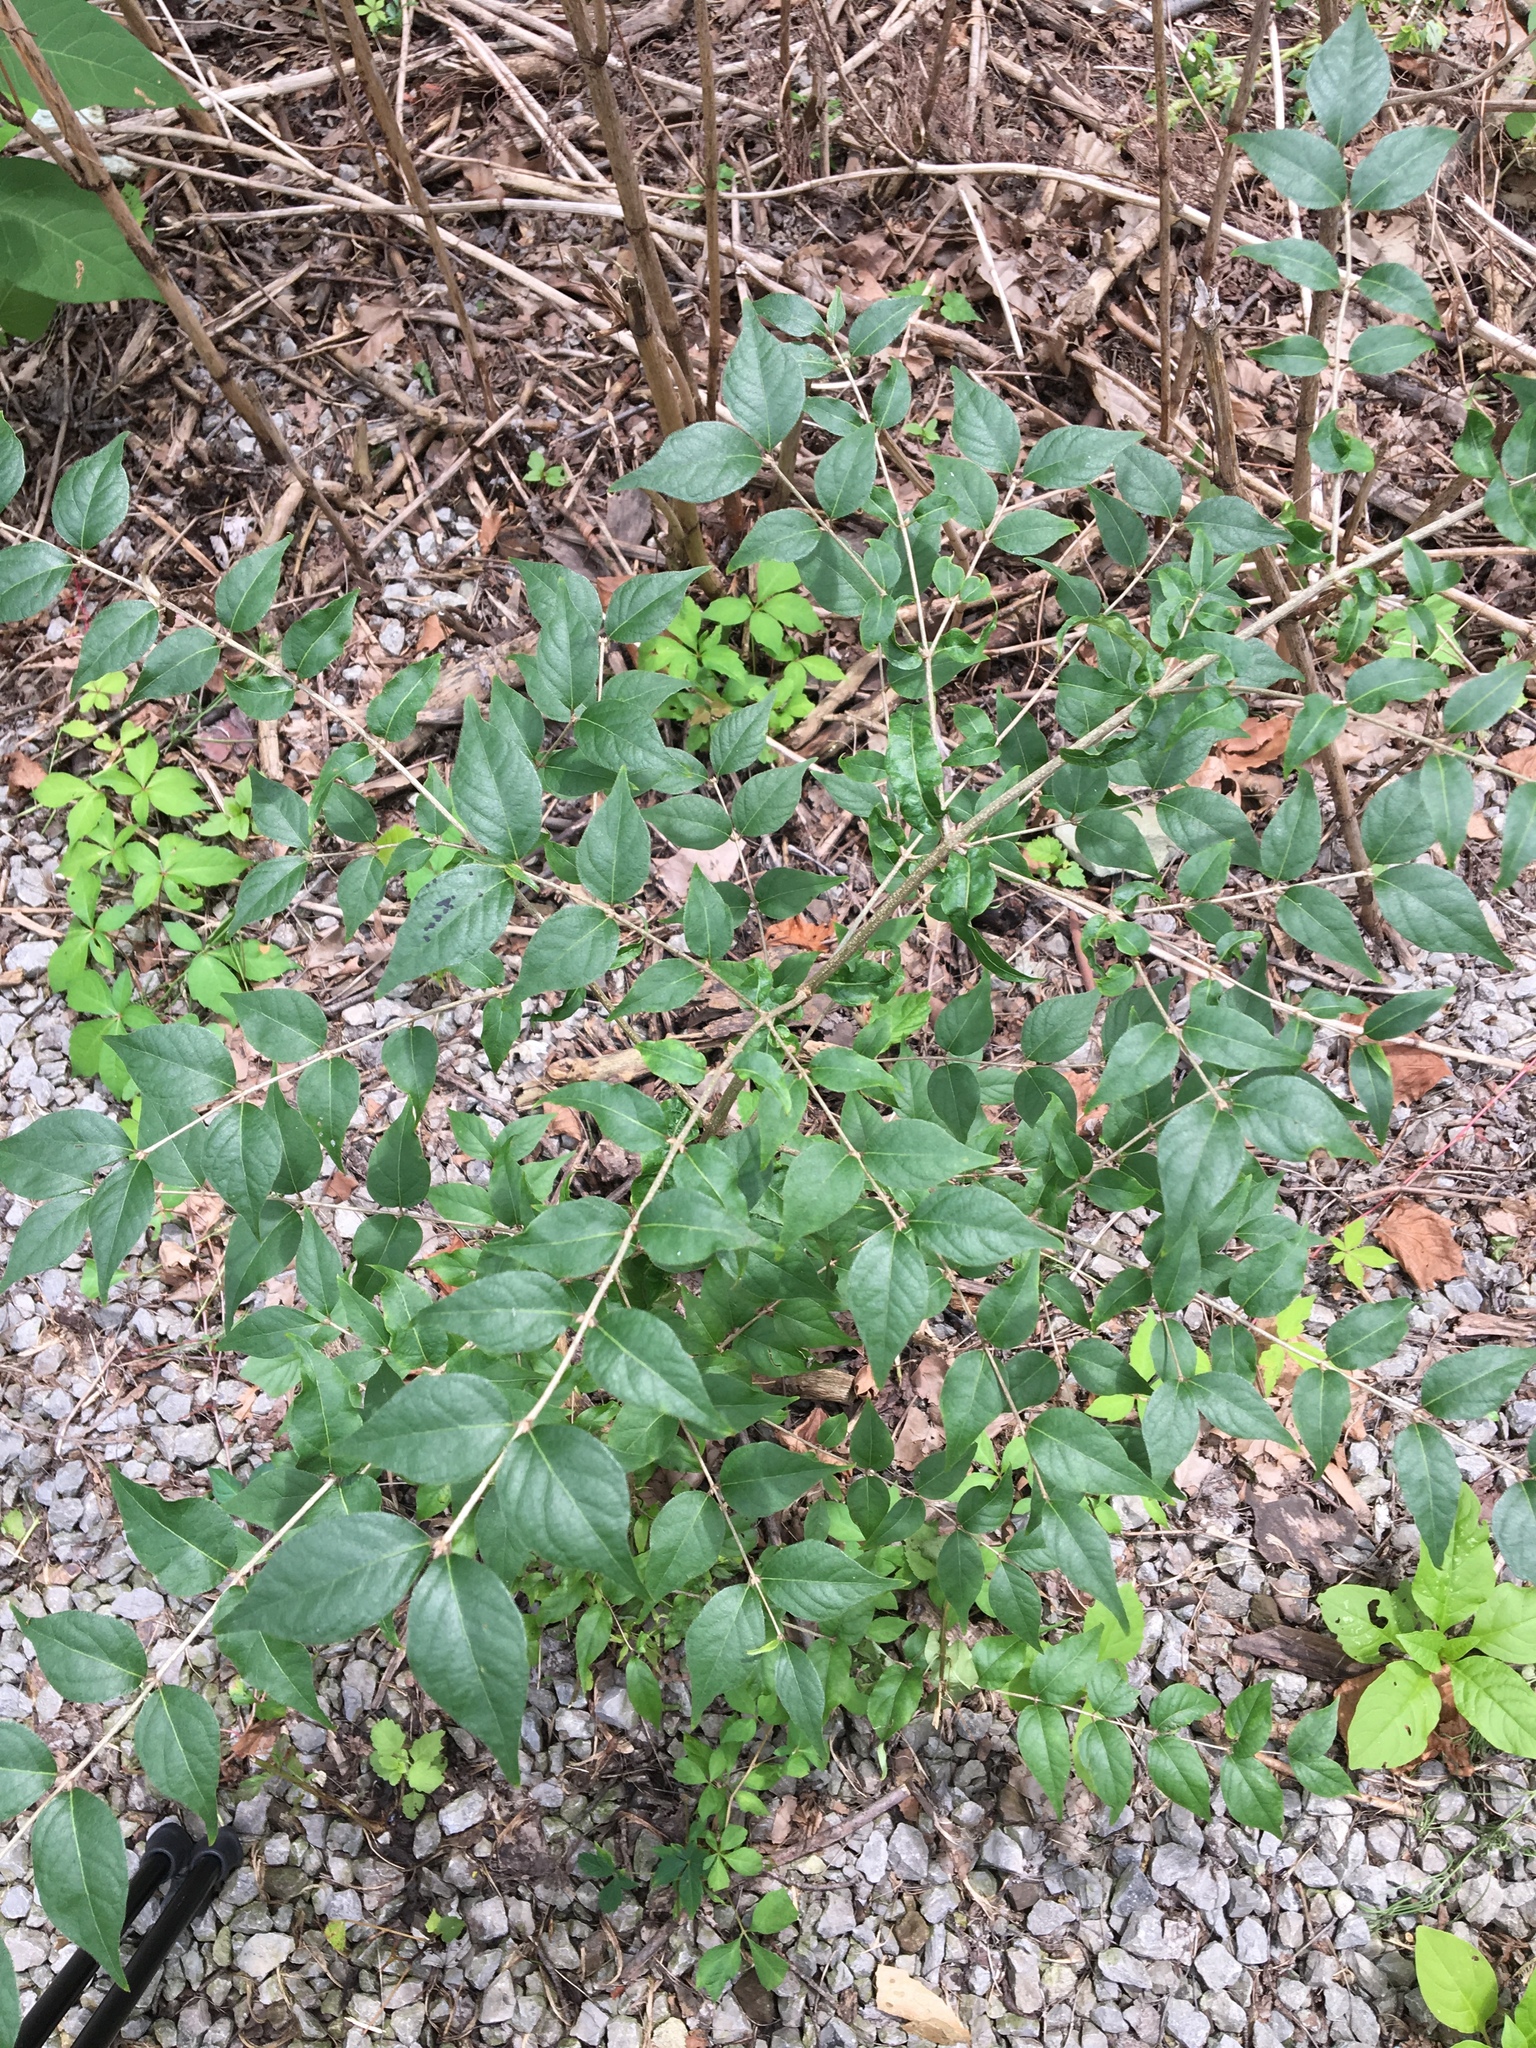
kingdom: Plantae
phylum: Tracheophyta
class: Magnoliopsida
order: Dipsacales
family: Caprifoliaceae
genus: Lonicera
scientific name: Lonicera maackii
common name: Amur honeysuckle
